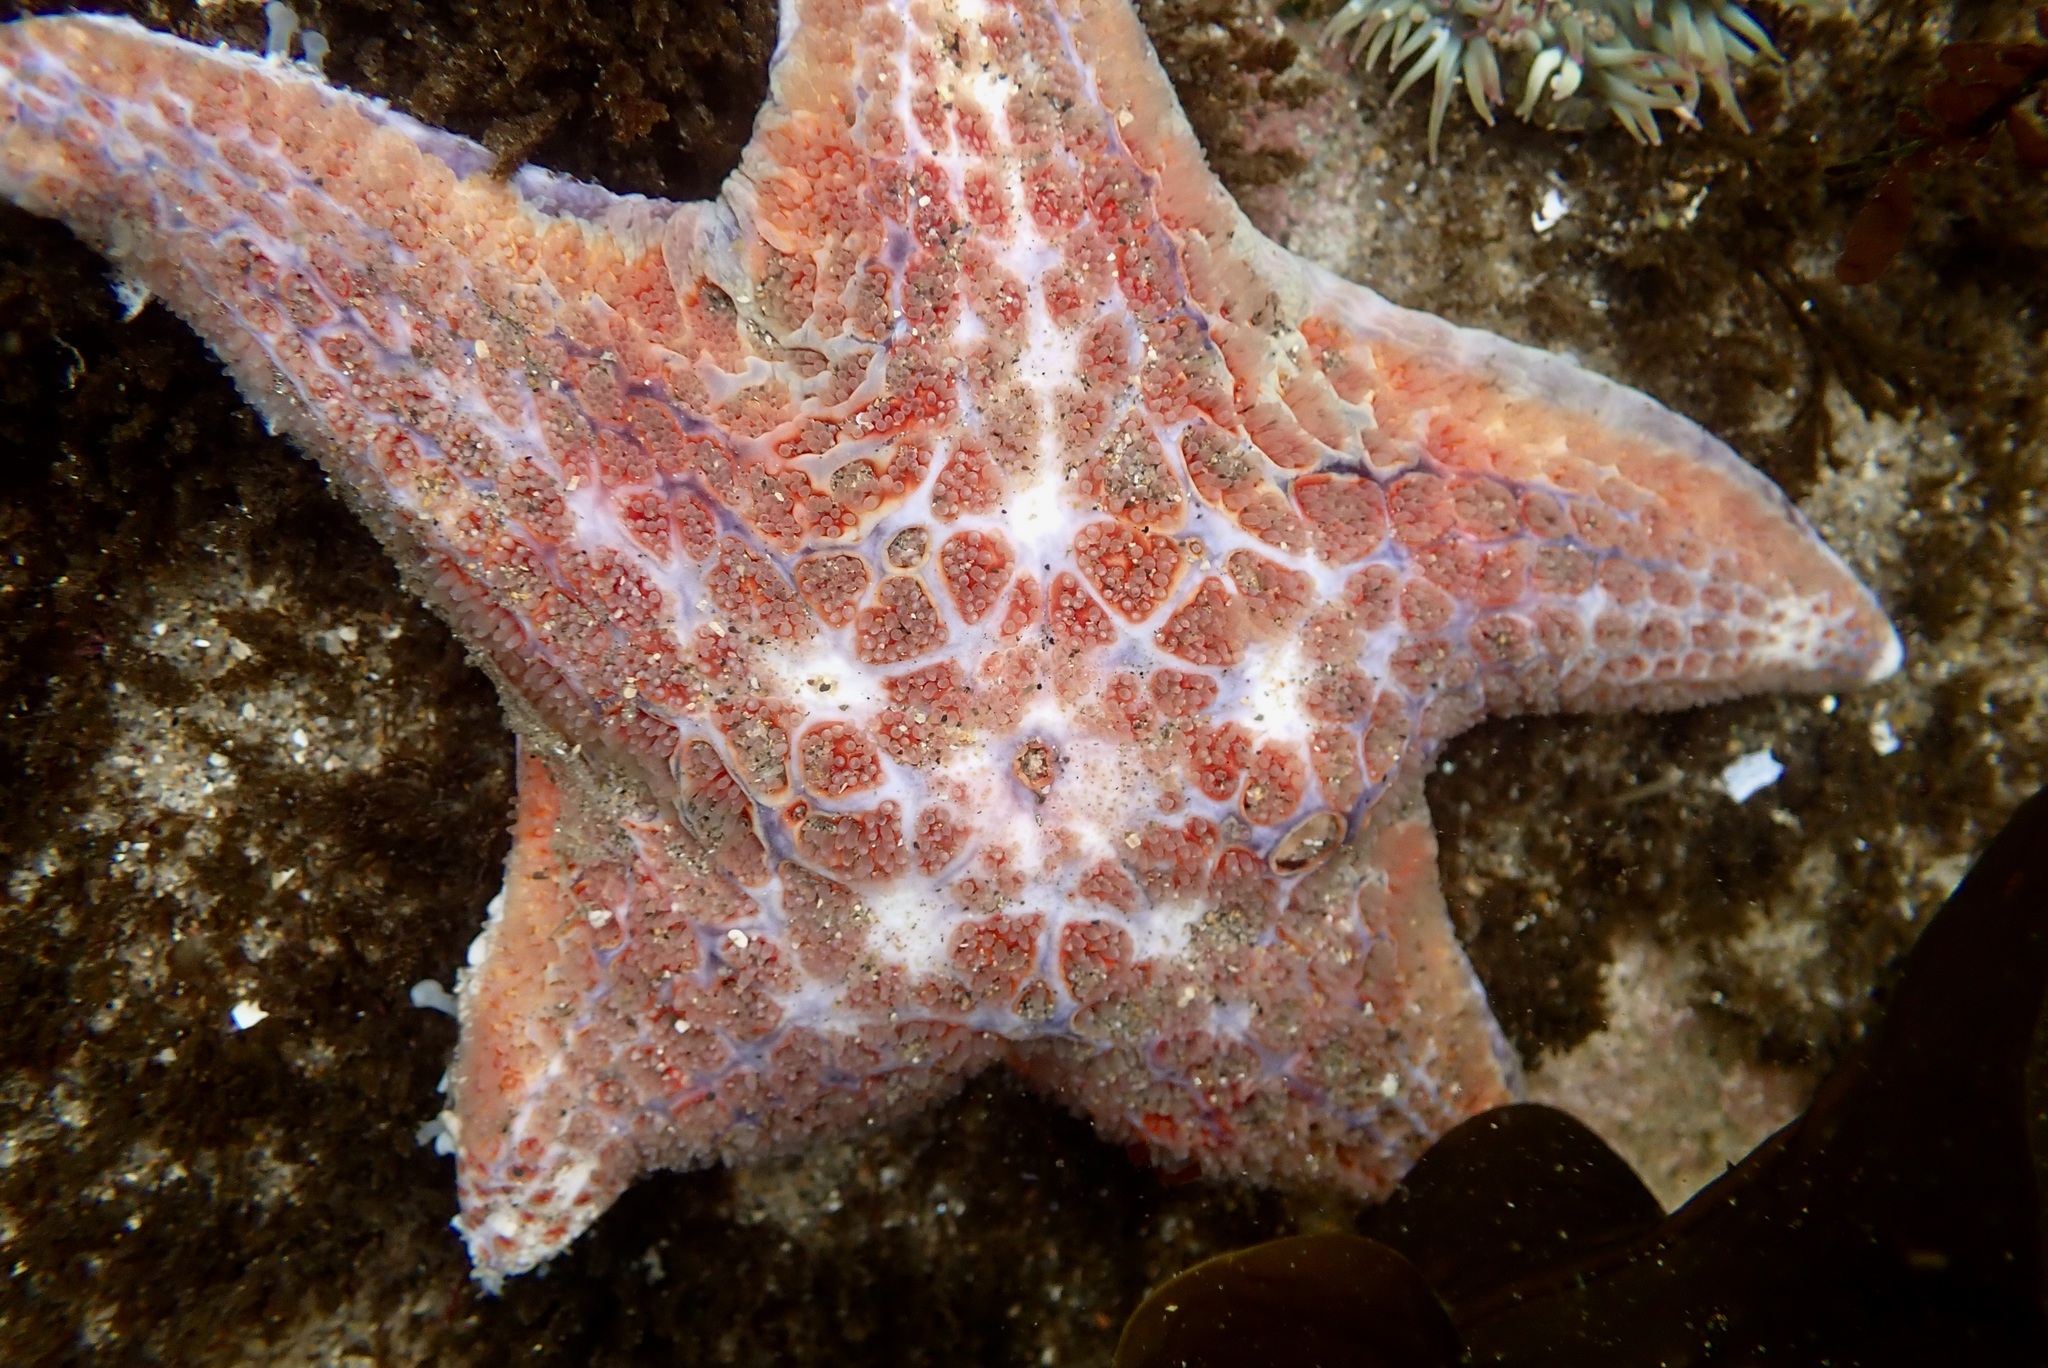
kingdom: Animalia
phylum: Echinodermata
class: Asteroidea
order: Valvatida
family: Asteropseidae
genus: Dermasterias
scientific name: Dermasterias imbricata
